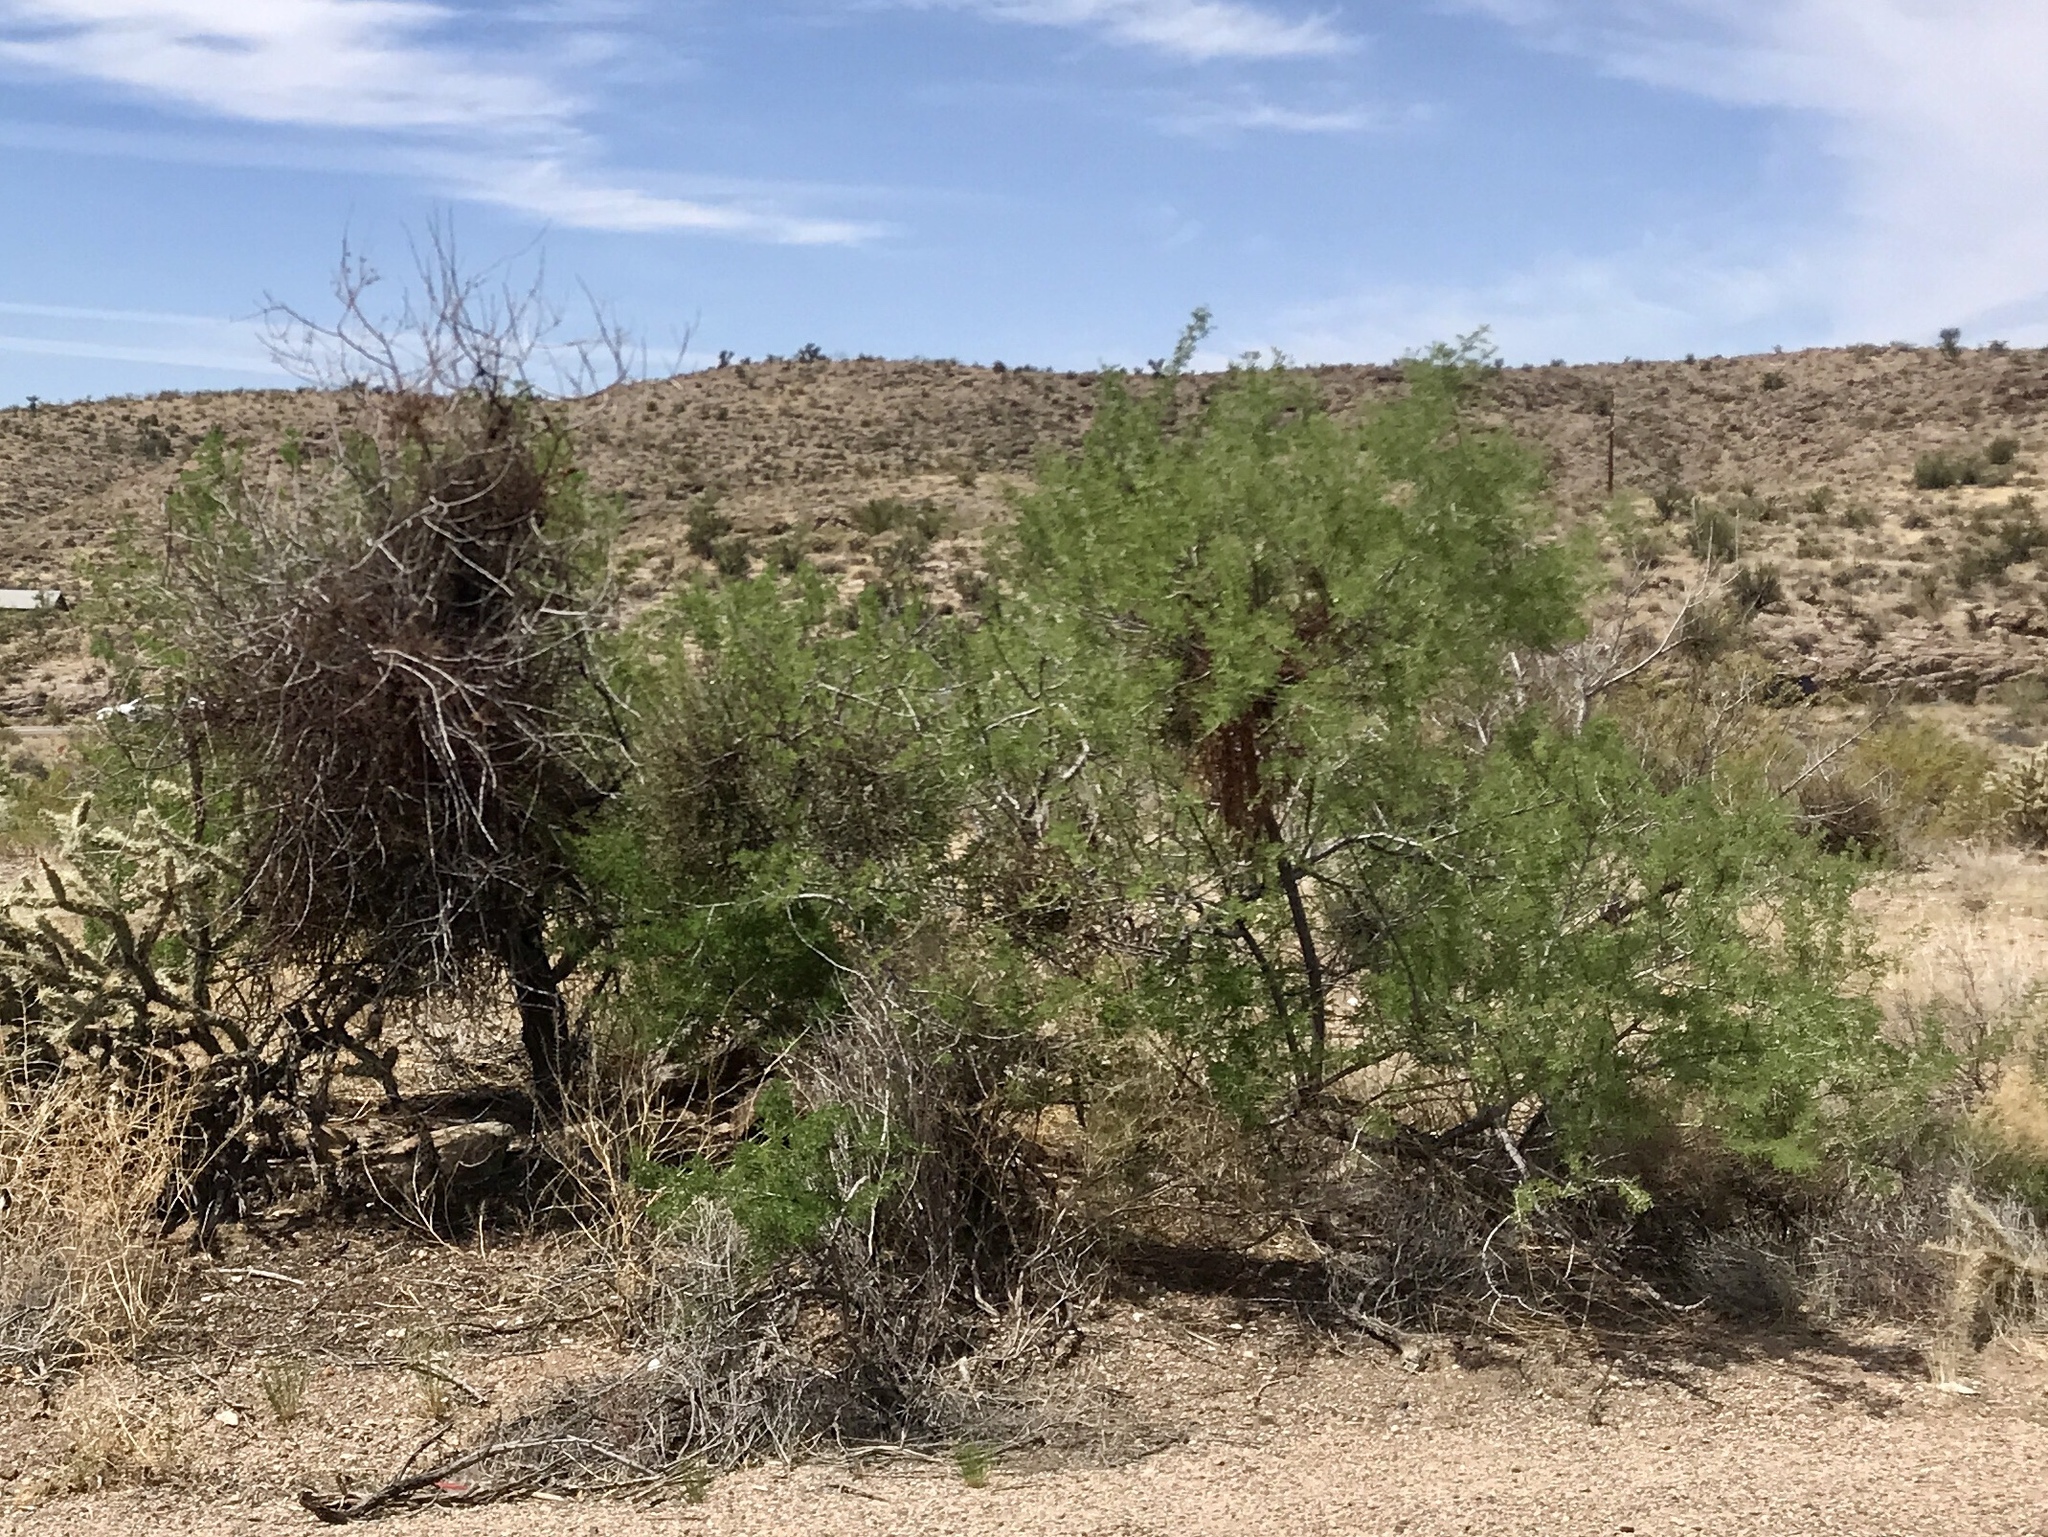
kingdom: Plantae
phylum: Tracheophyta
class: Magnoliopsida
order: Fabales
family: Fabaceae
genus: Senegalia
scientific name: Senegalia greggii
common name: Texas-mimosa
